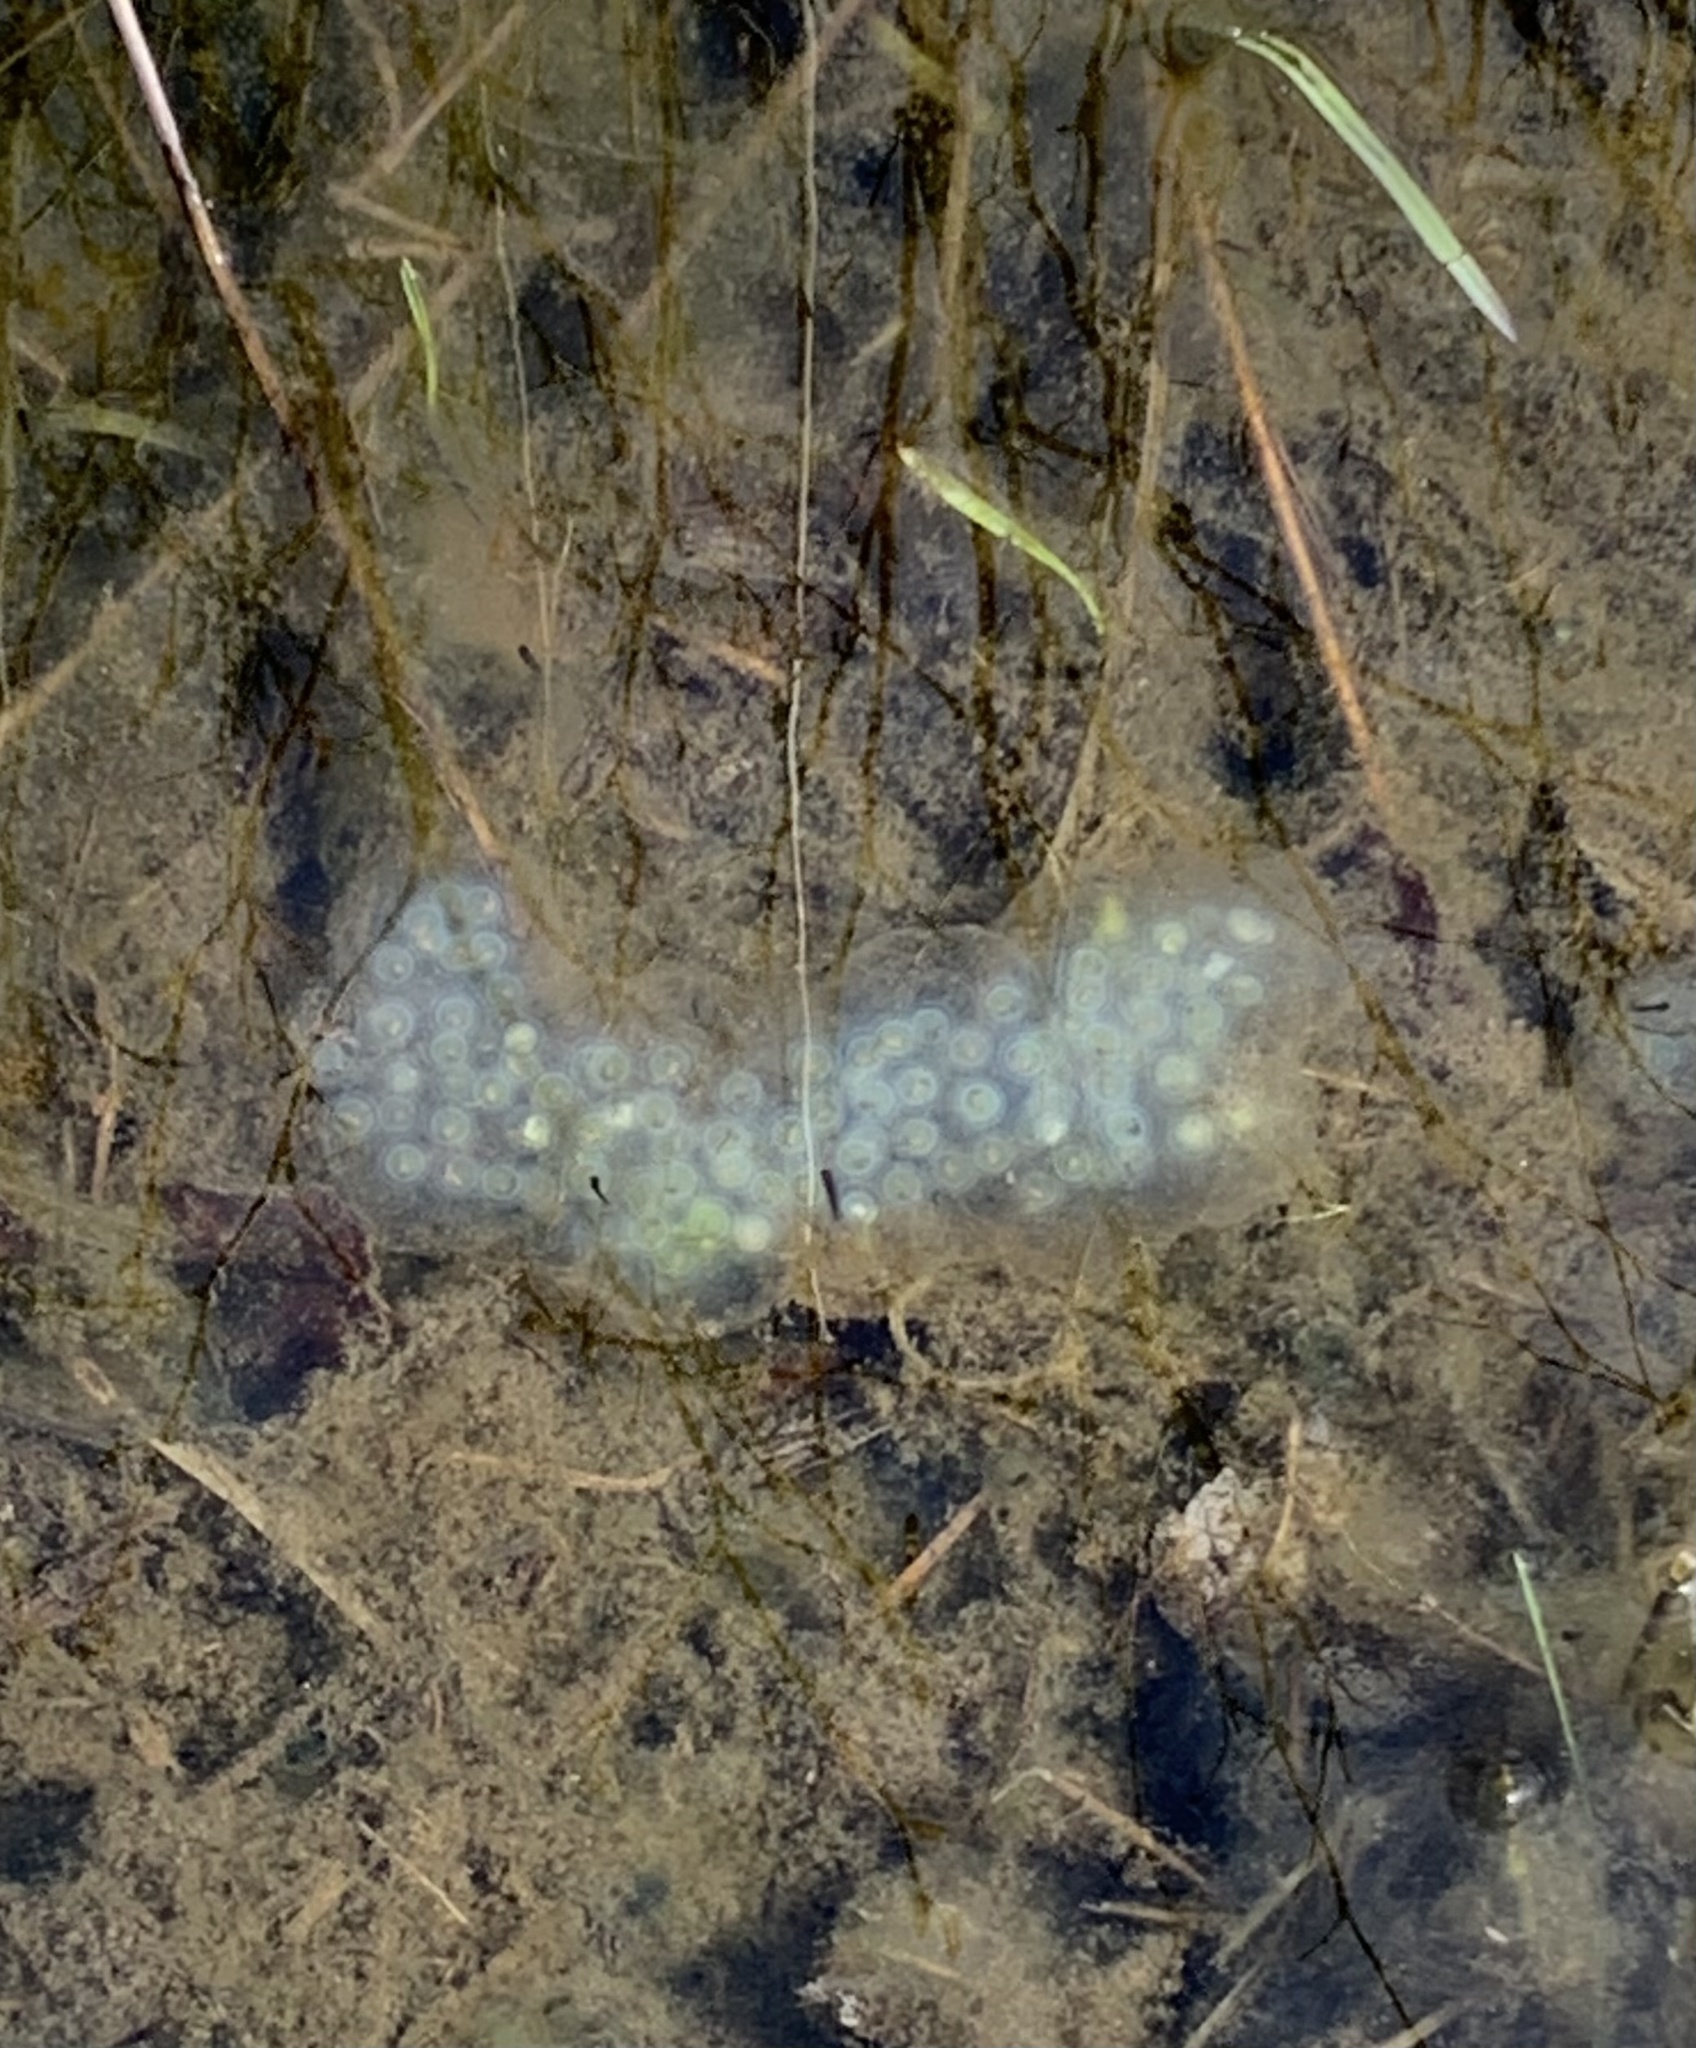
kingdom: Animalia
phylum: Chordata
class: Amphibia
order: Caudata
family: Ambystomatidae
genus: Ambystoma
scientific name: Ambystoma maculatum
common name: Spotted salamander
